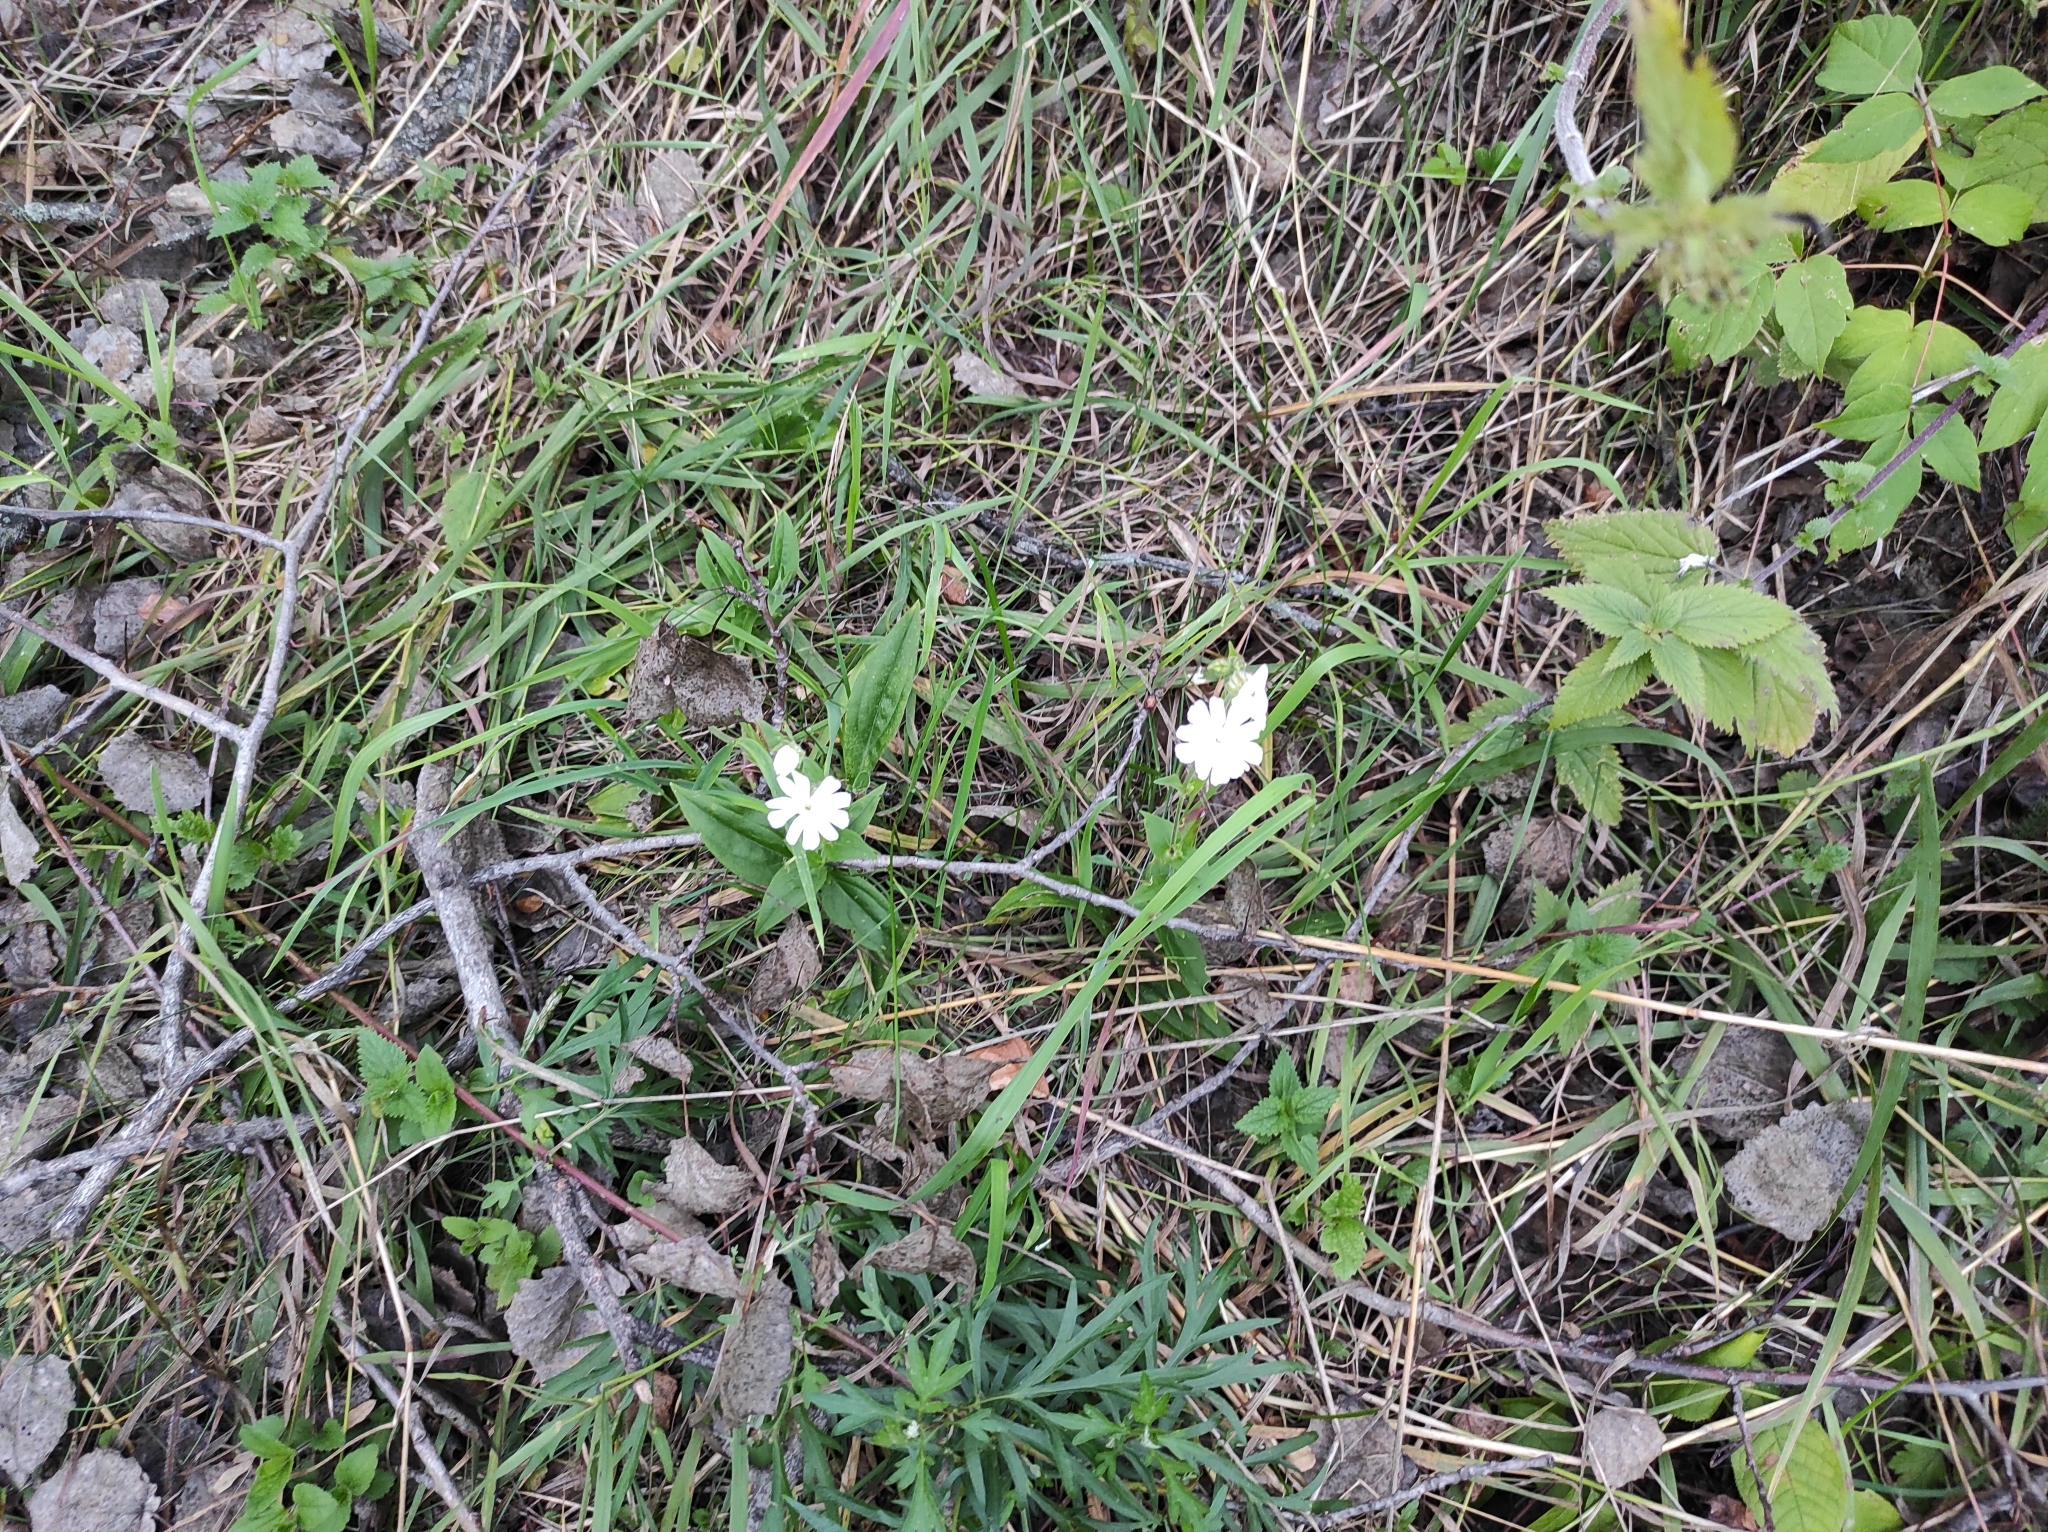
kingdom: Plantae
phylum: Tracheophyta
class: Magnoliopsida
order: Caryophyllales
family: Caryophyllaceae
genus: Silene
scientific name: Silene latifolia
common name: White campion
